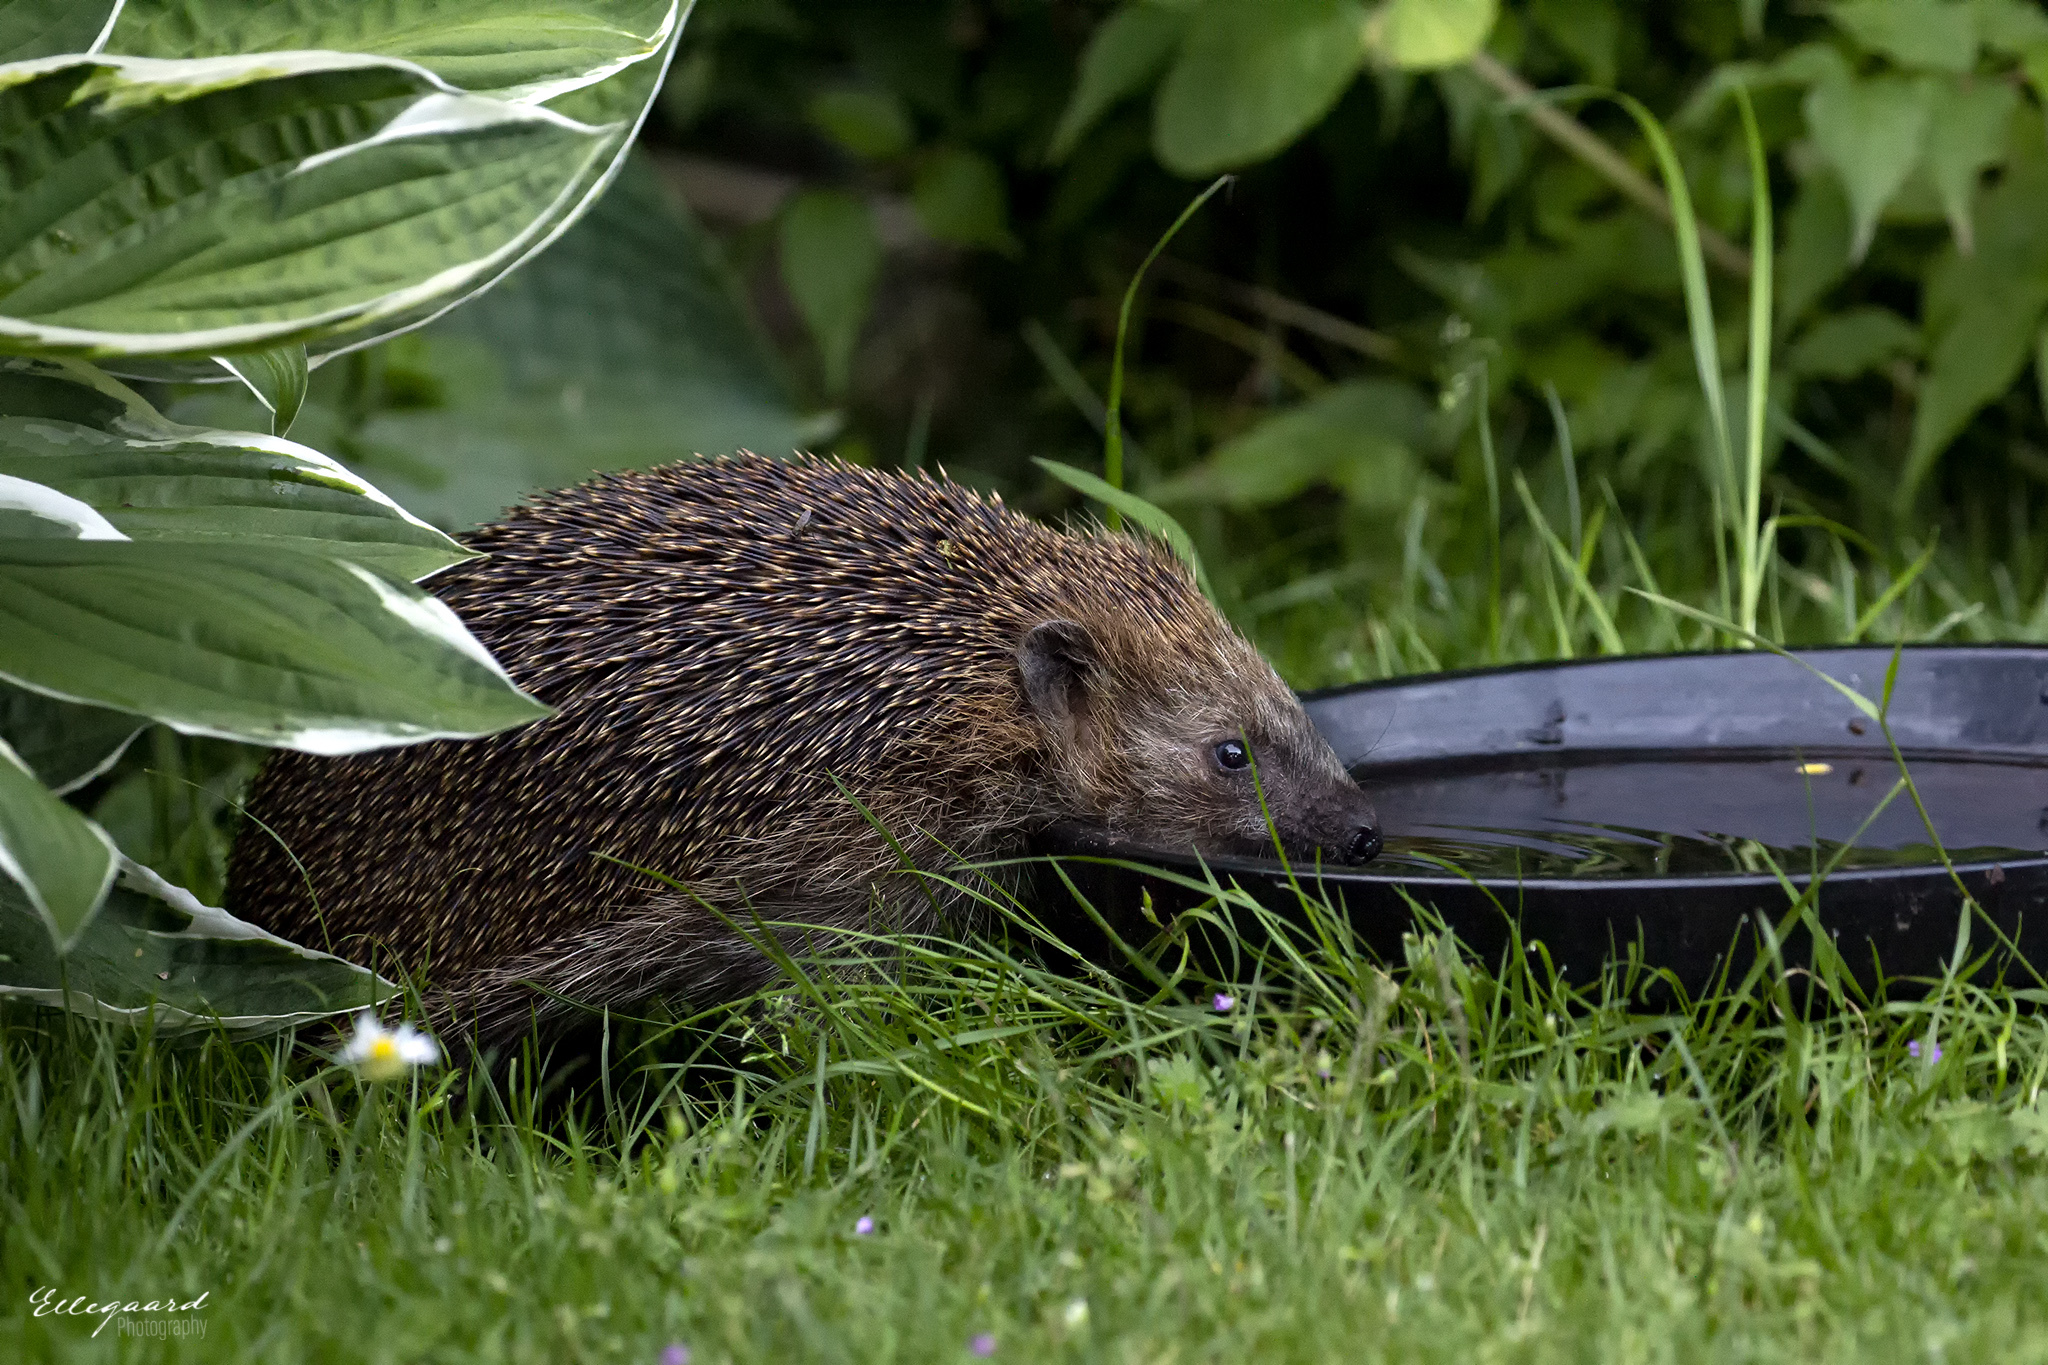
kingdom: Animalia
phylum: Chordata
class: Mammalia
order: Erinaceomorpha
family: Erinaceidae
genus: Erinaceus
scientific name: Erinaceus europaeus
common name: West european hedgehog
